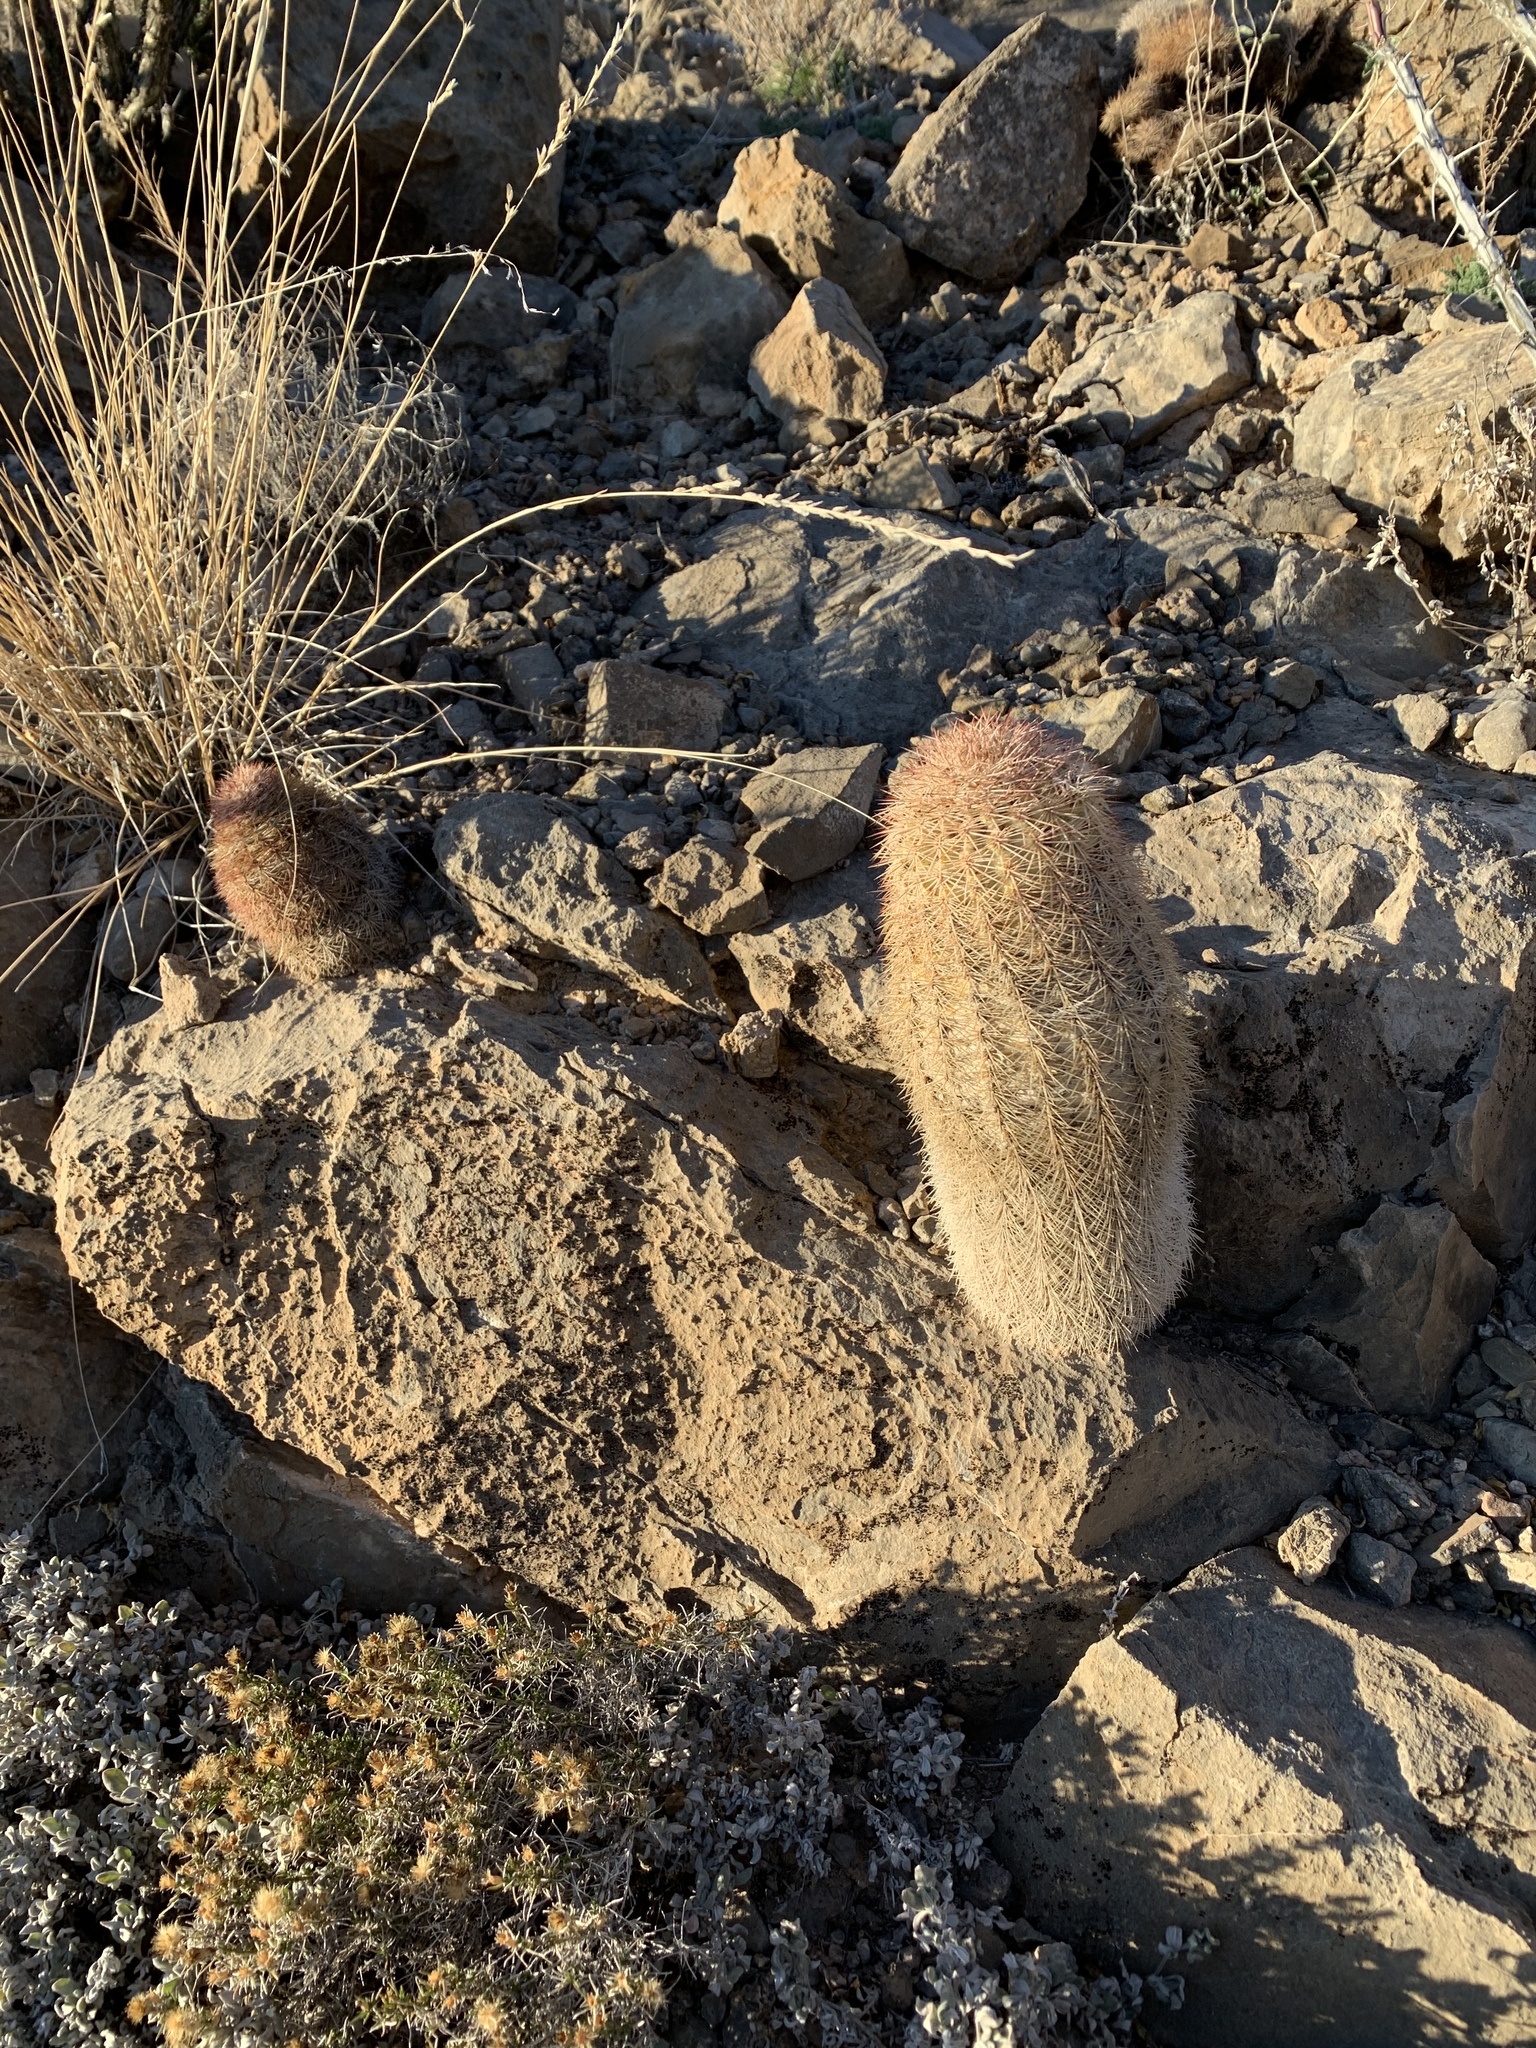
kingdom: Plantae
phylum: Tracheophyta
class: Magnoliopsida
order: Caryophyllales
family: Cactaceae
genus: Echinocereus
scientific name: Echinocereus dasyacanthus
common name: Spiny hedgehog cactus
